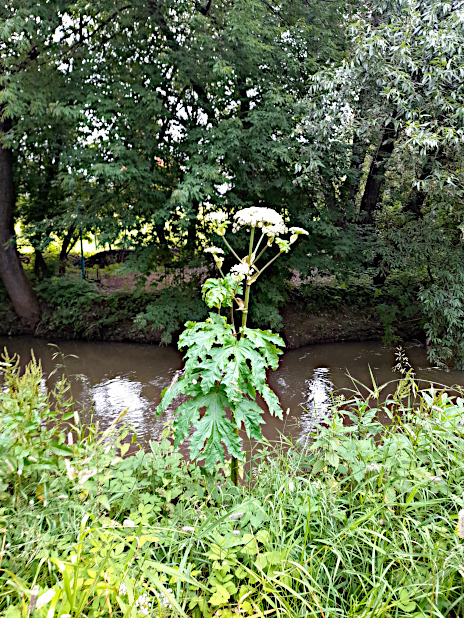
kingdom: Plantae
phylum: Tracheophyta
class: Magnoliopsida
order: Apiales
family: Apiaceae
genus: Heracleum
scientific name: Heracleum sosnowskyi
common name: Sosnowsky's hogweed
